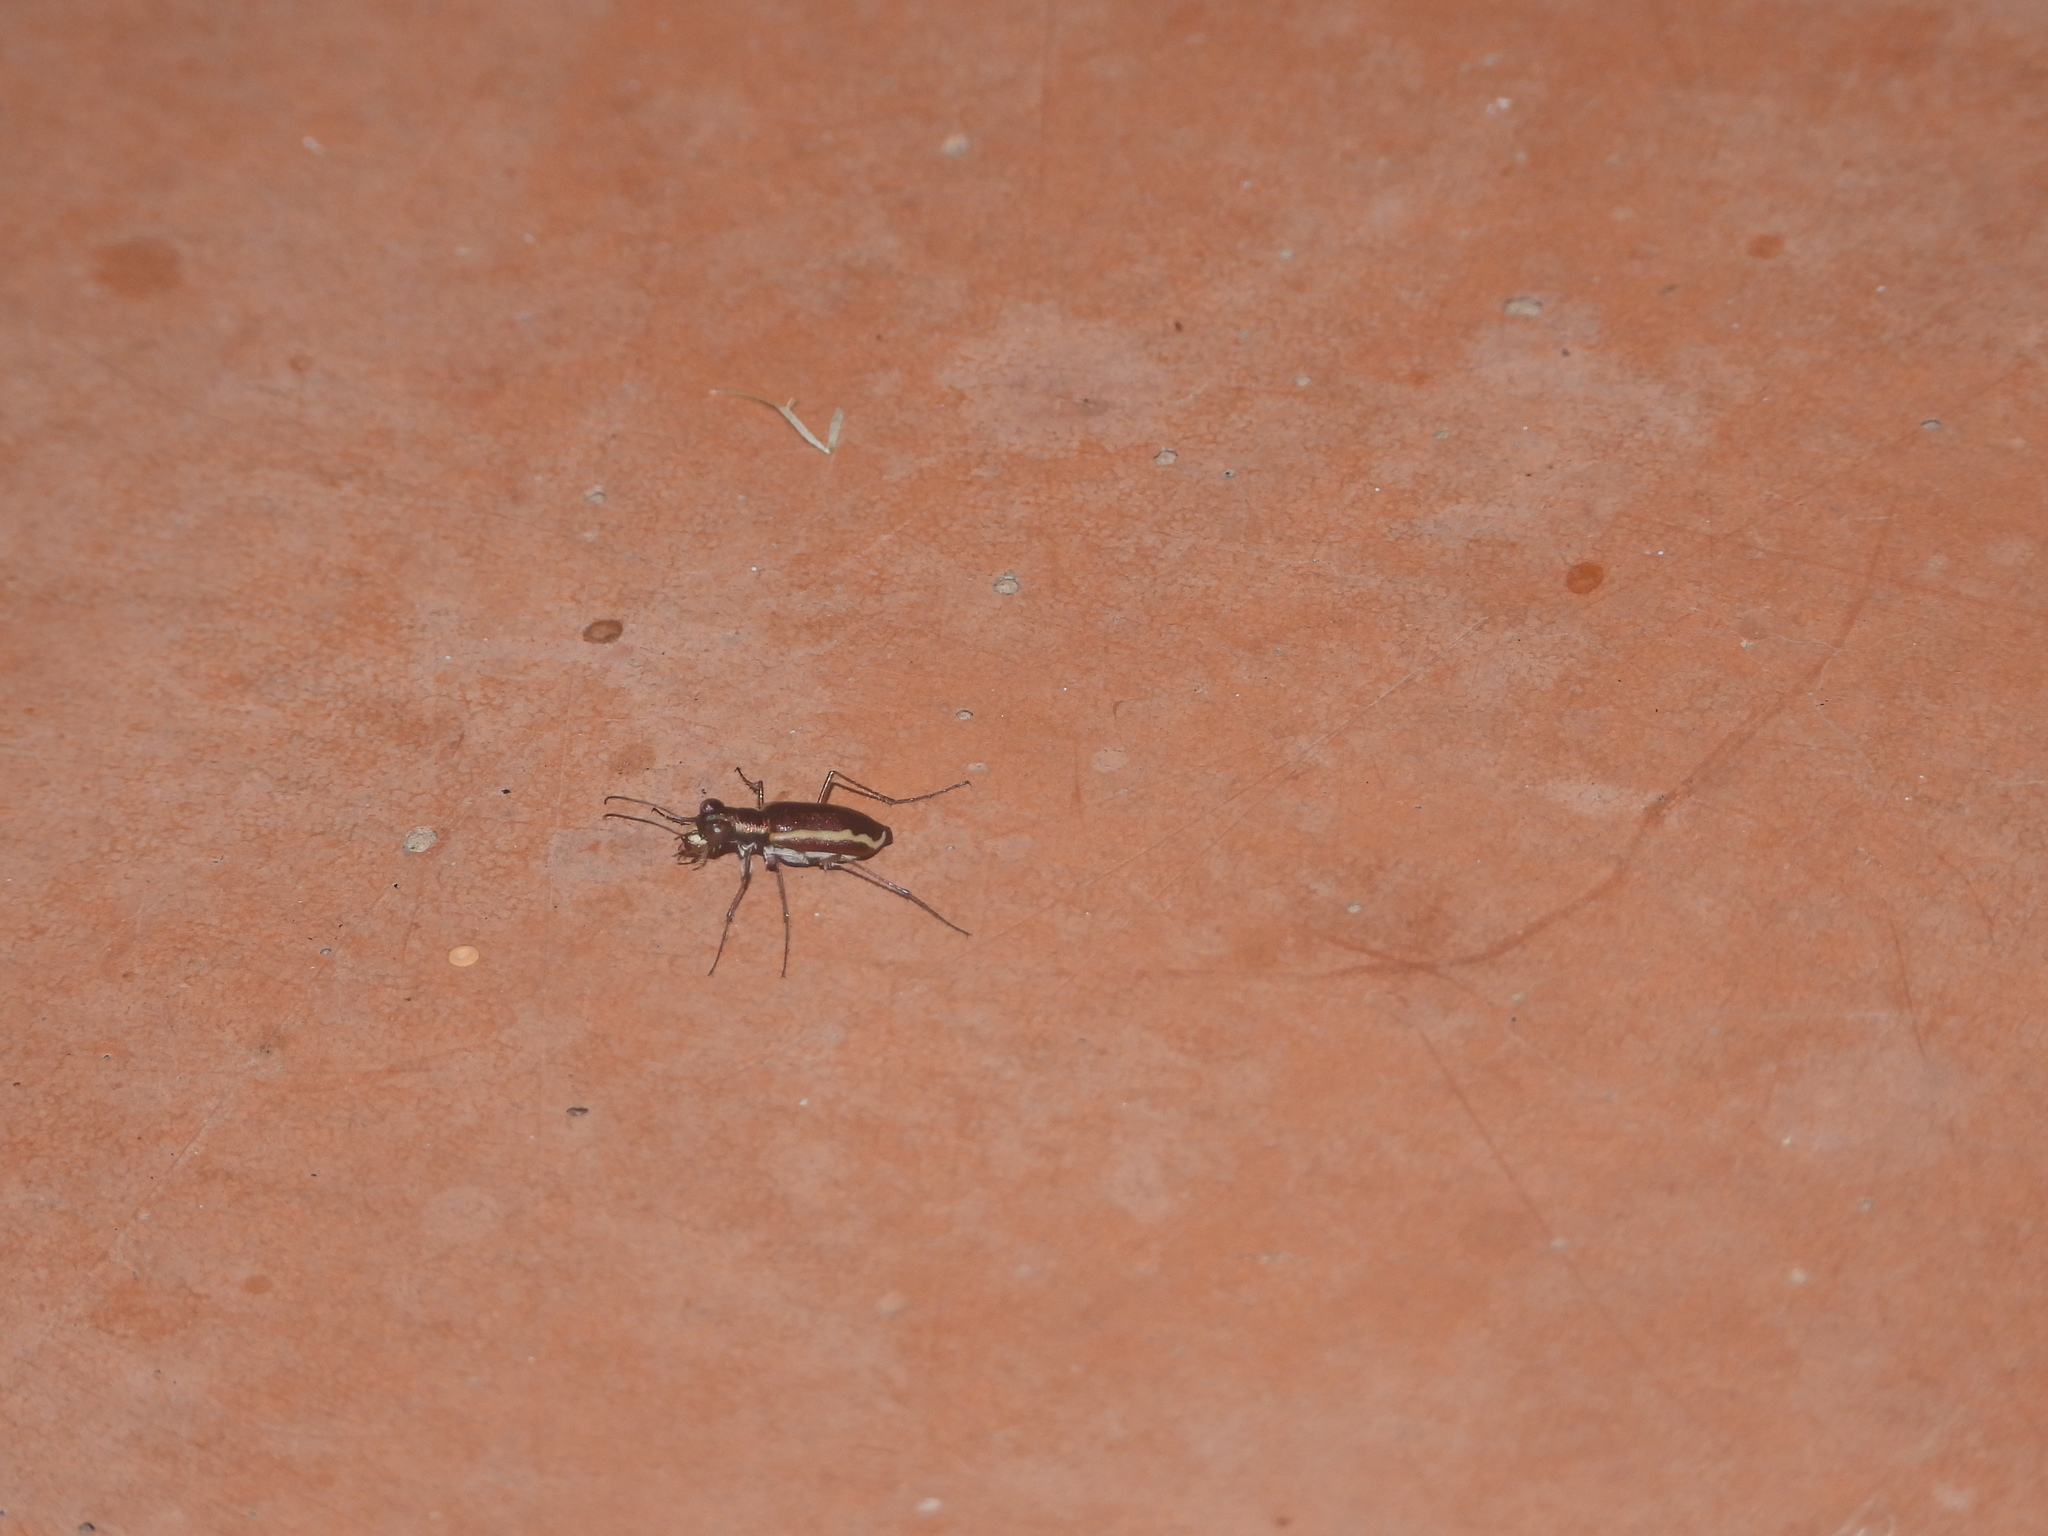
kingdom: Animalia
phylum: Arthropoda
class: Insecta
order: Coleoptera
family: Carabidae
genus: Cylindera
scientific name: Cylindera lemniscata
